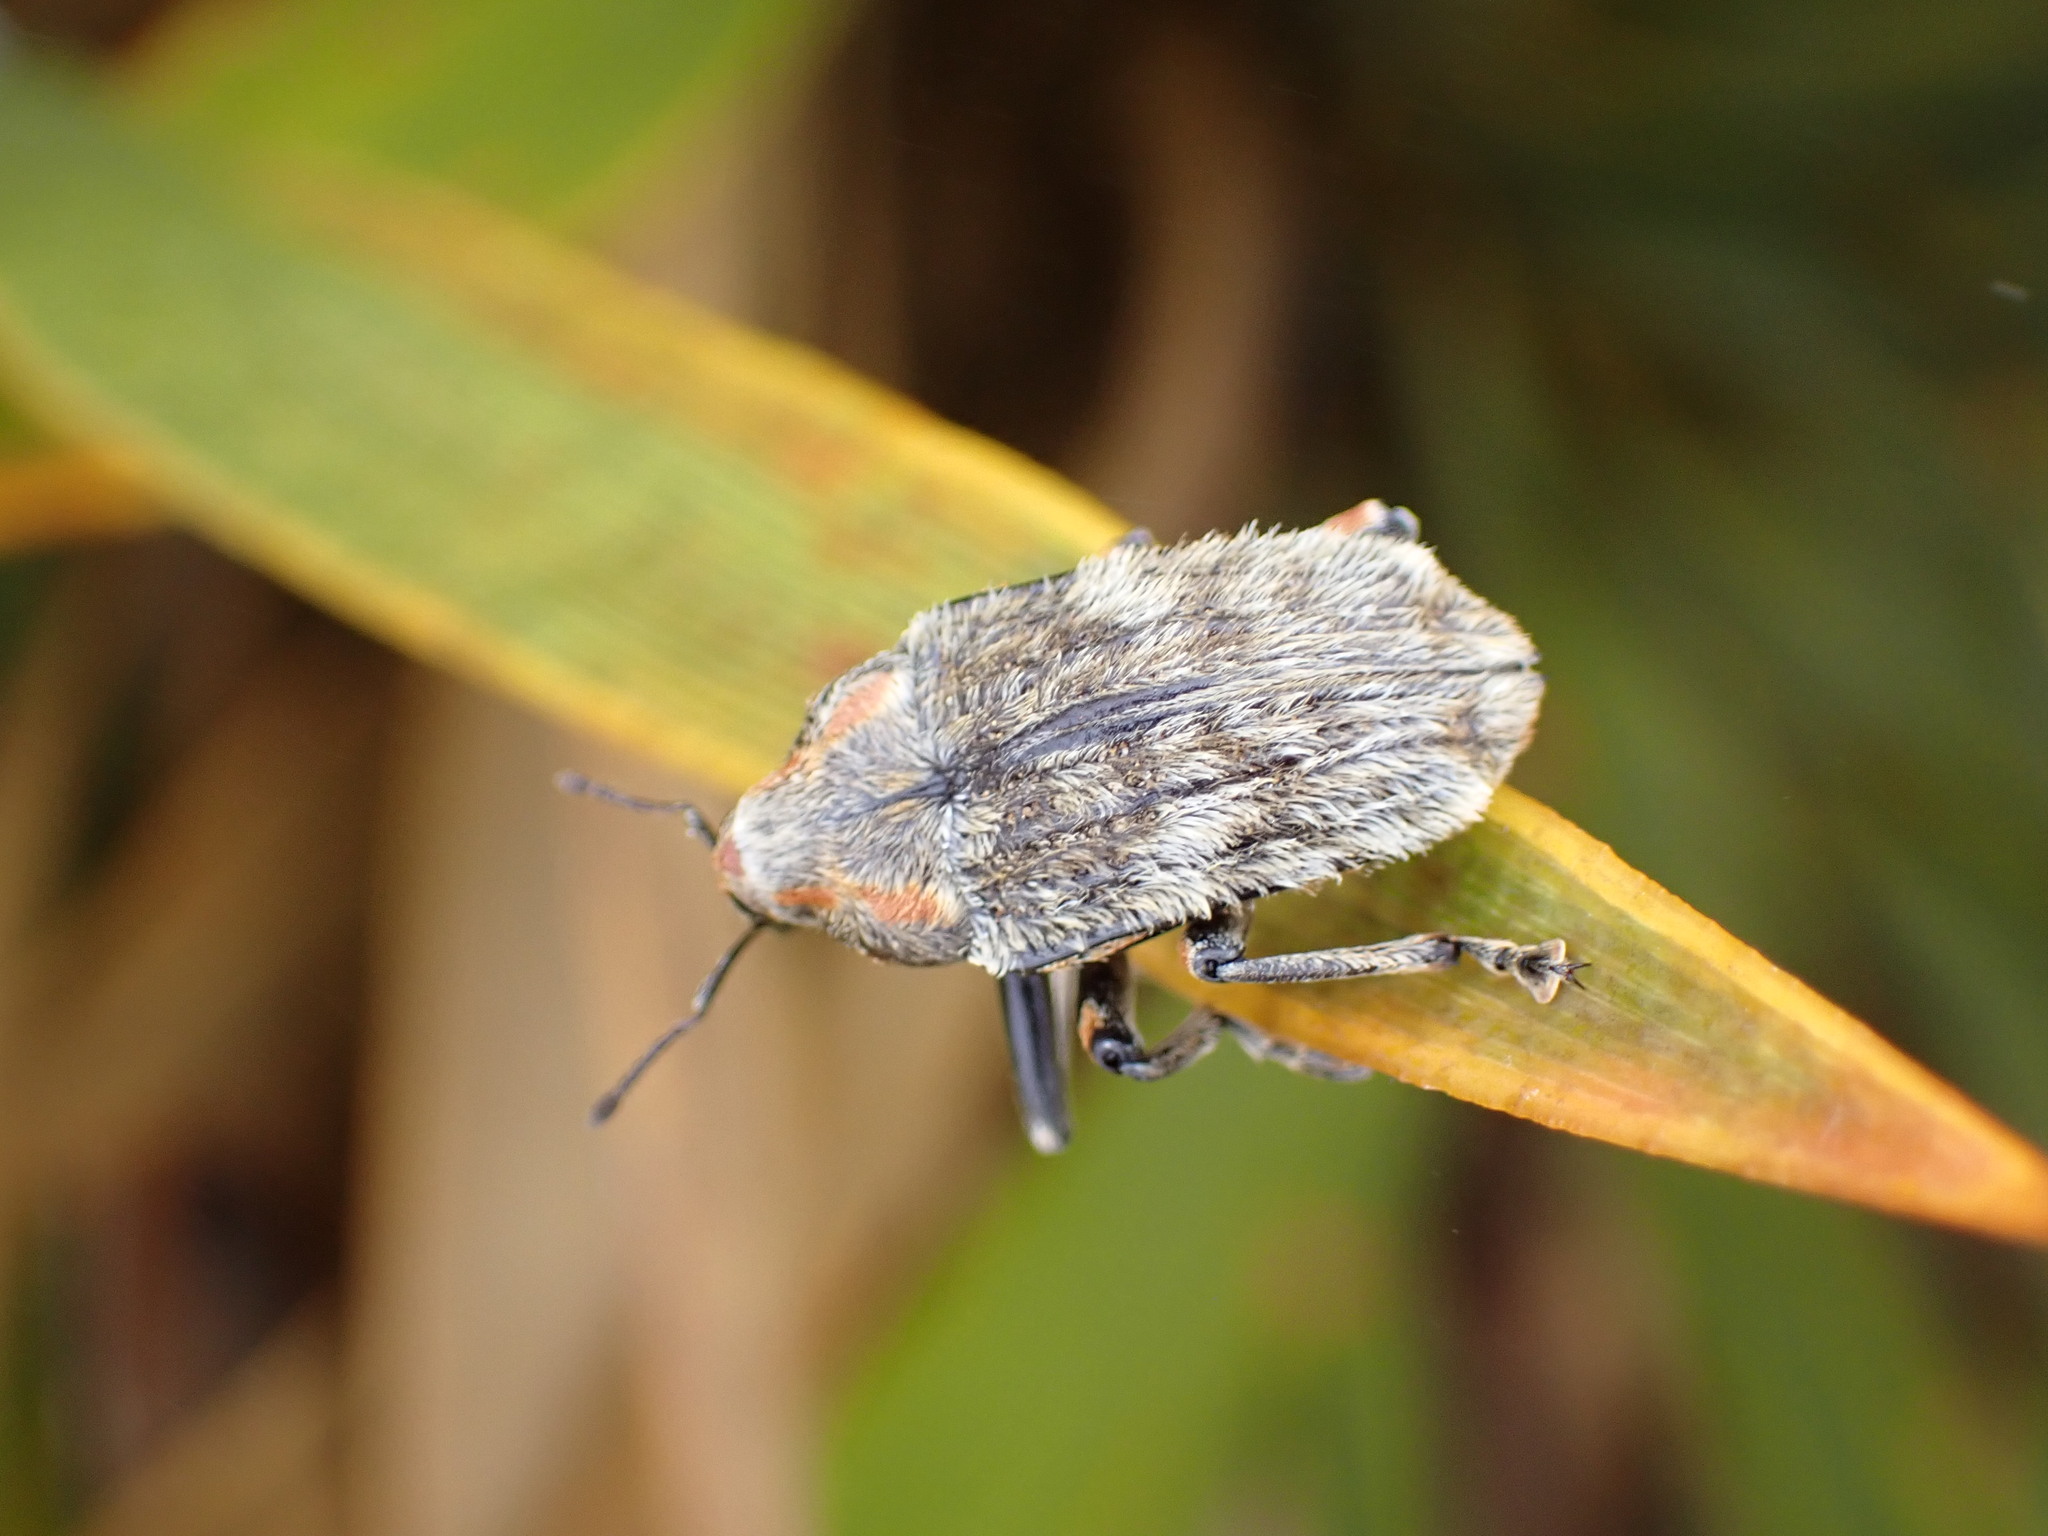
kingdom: Animalia
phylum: Arthropoda
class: Insecta
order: Coleoptera
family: Curculionidae
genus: Rhynchodes
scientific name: Rhynchodes ursus
